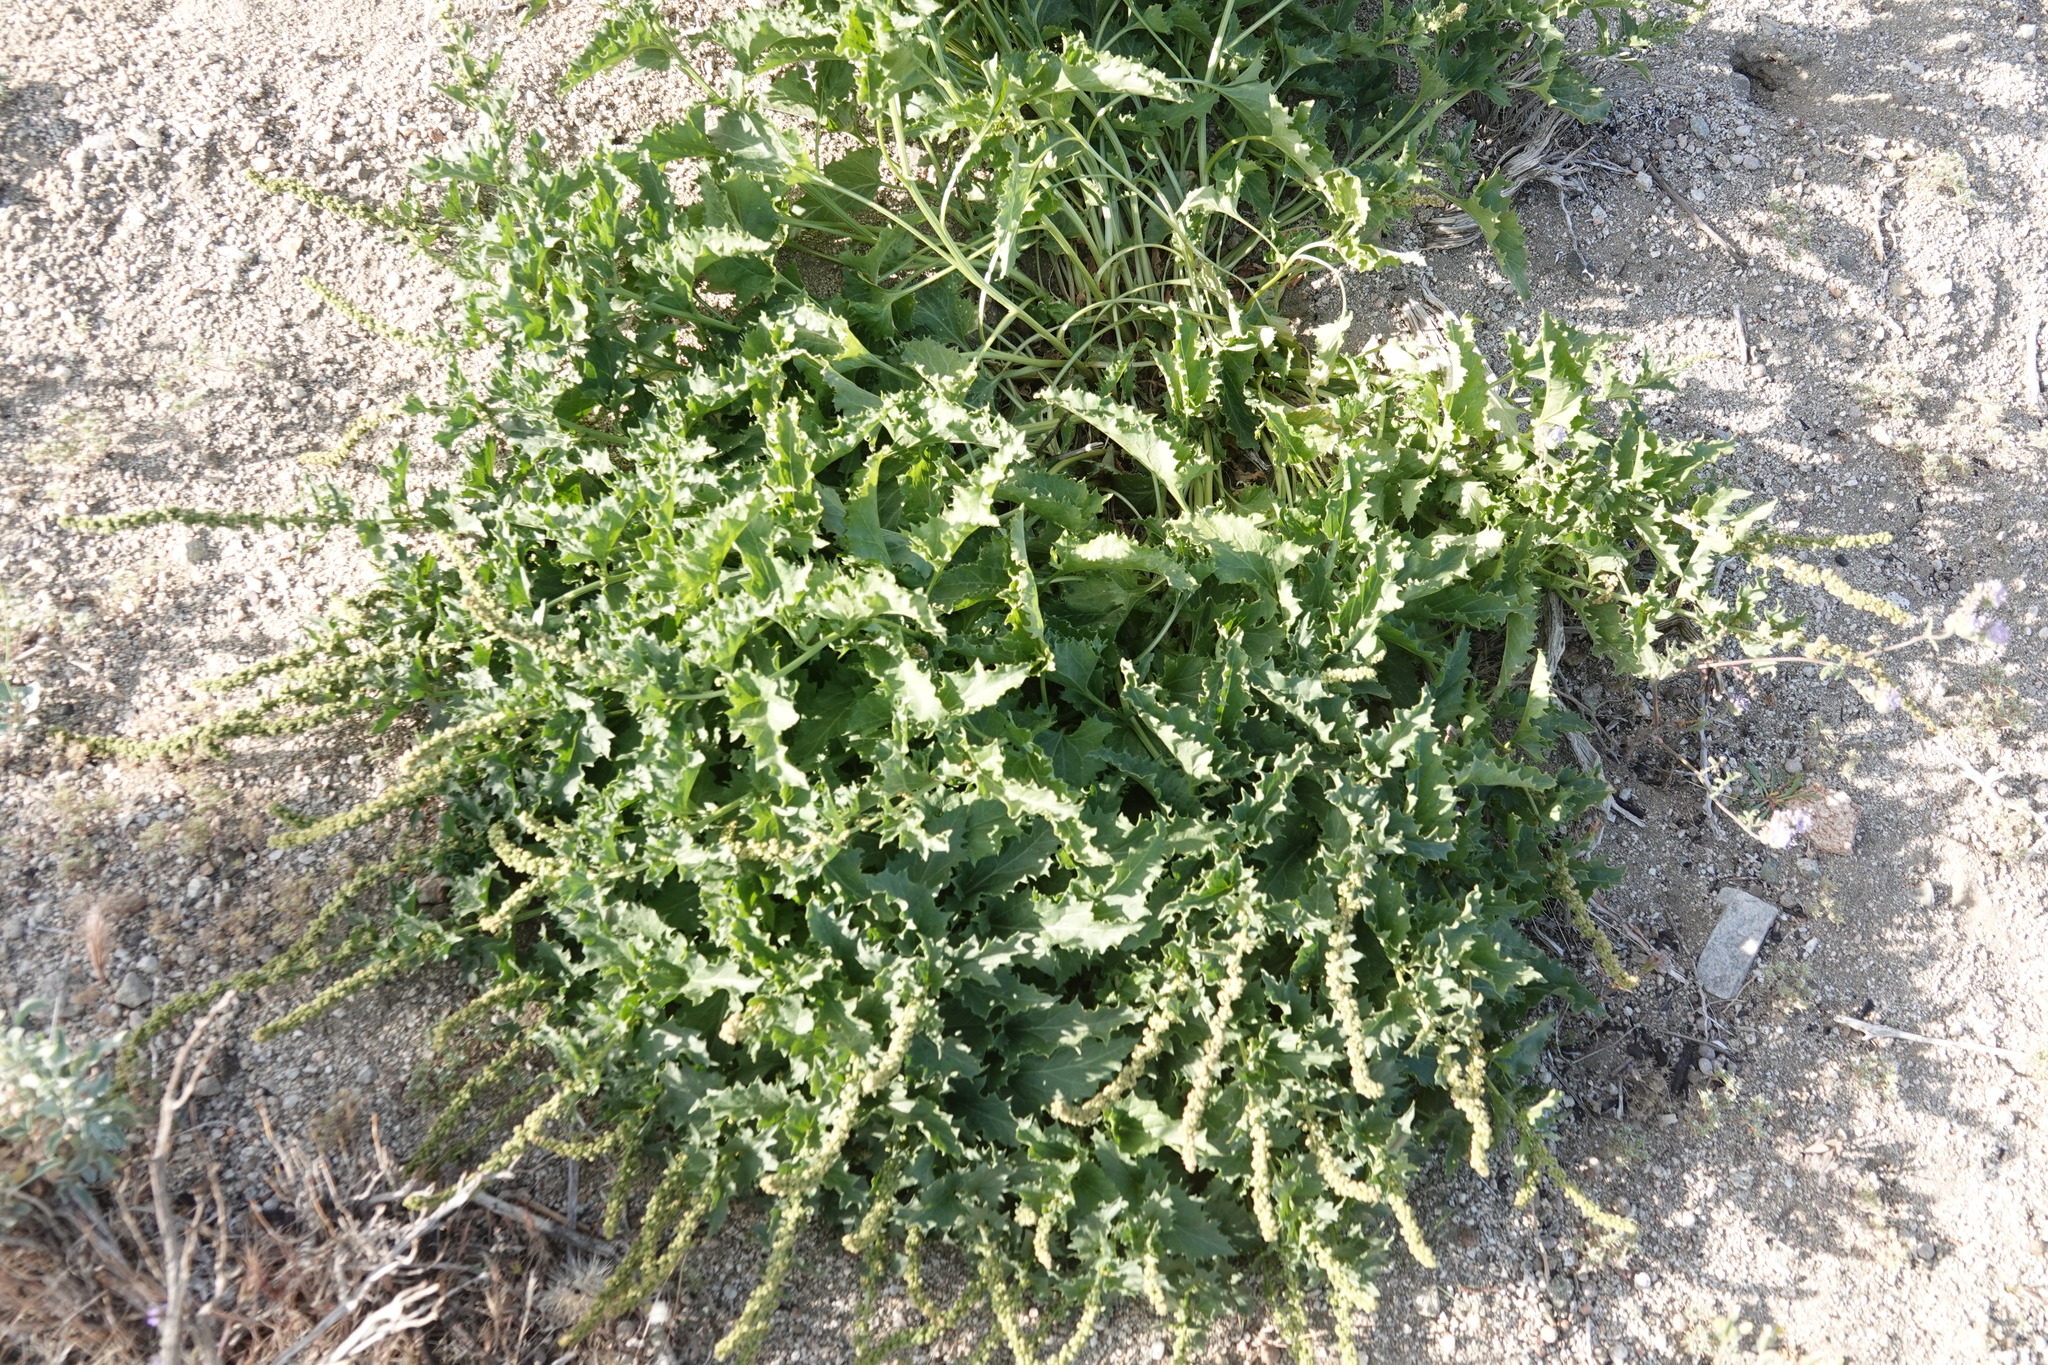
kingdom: Plantae
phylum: Tracheophyta
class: Magnoliopsida
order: Caryophyllales
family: Amaranthaceae
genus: Blitum
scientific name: Blitum californicum
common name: California goosefoot
